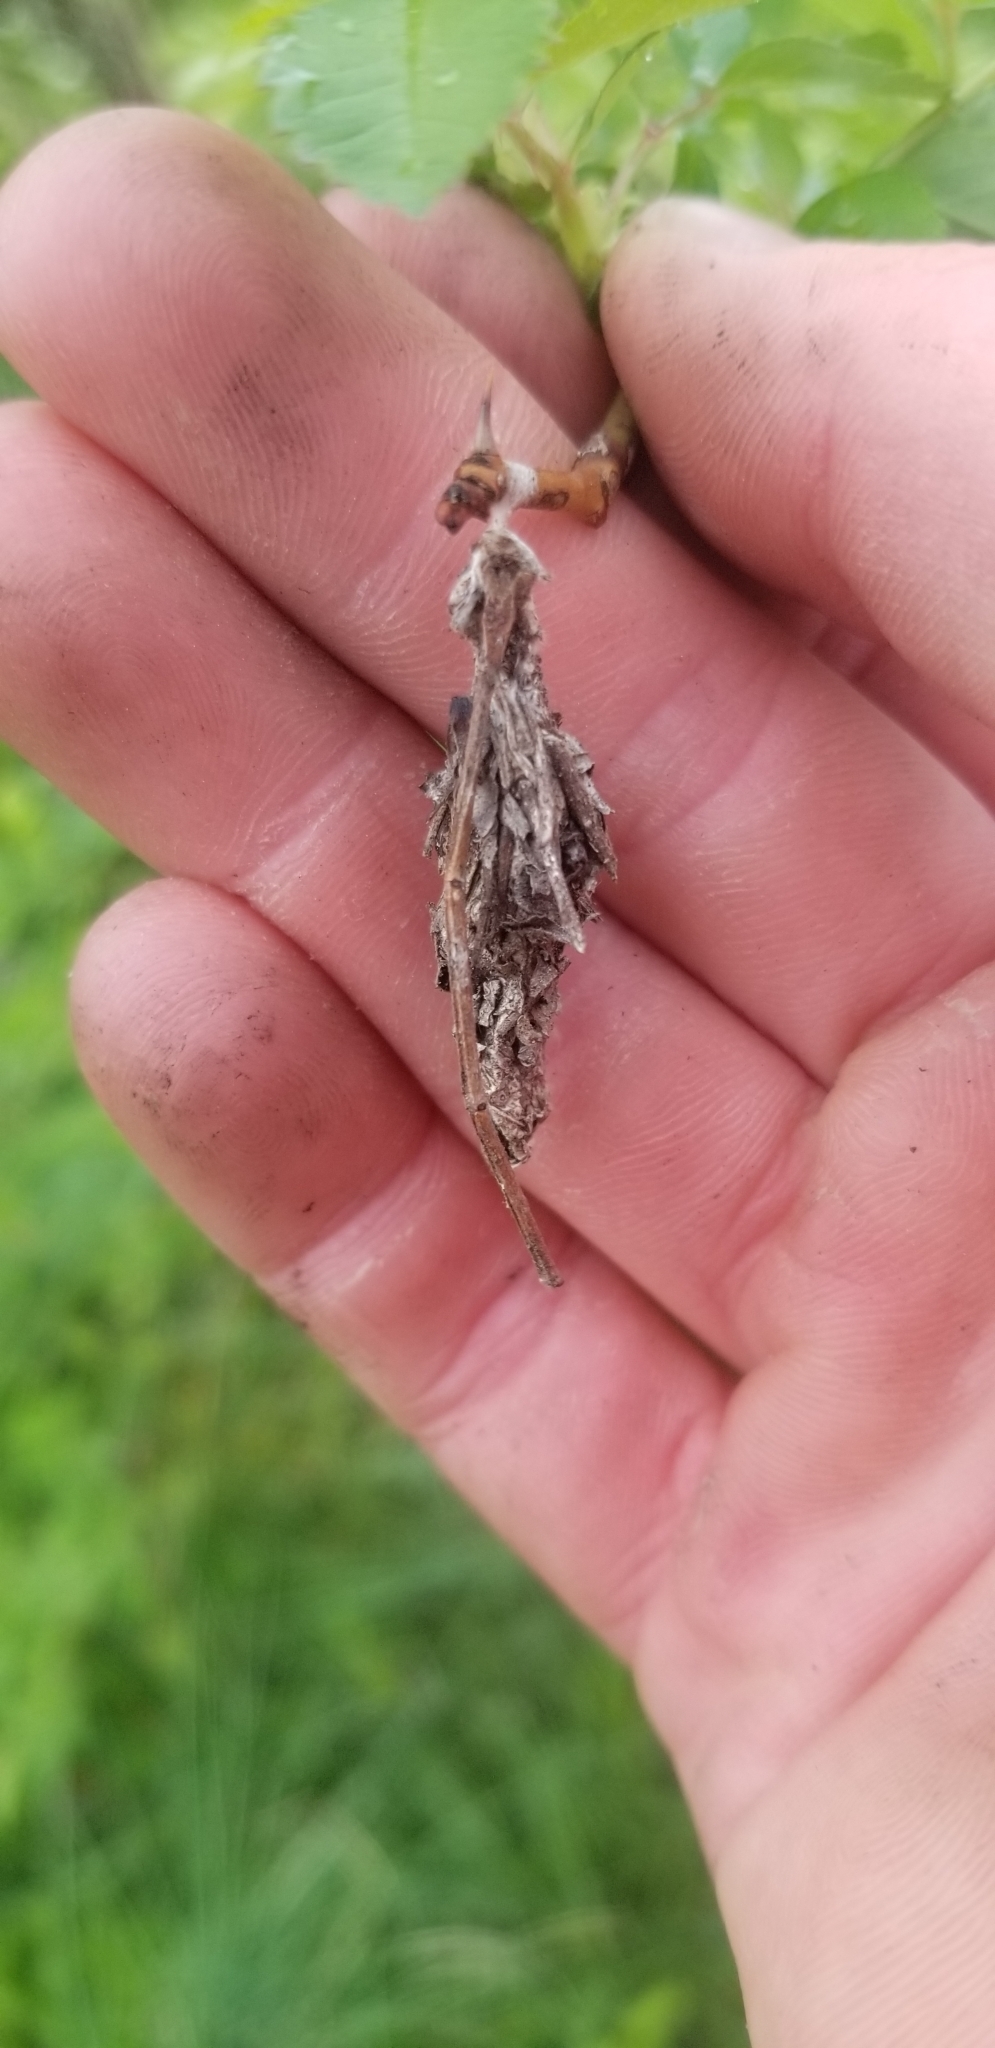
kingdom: Animalia
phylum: Arthropoda
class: Insecta
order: Lepidoptera
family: Psychidae
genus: Thyridopteryx
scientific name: Thyridopteryx ephemeraeformis
